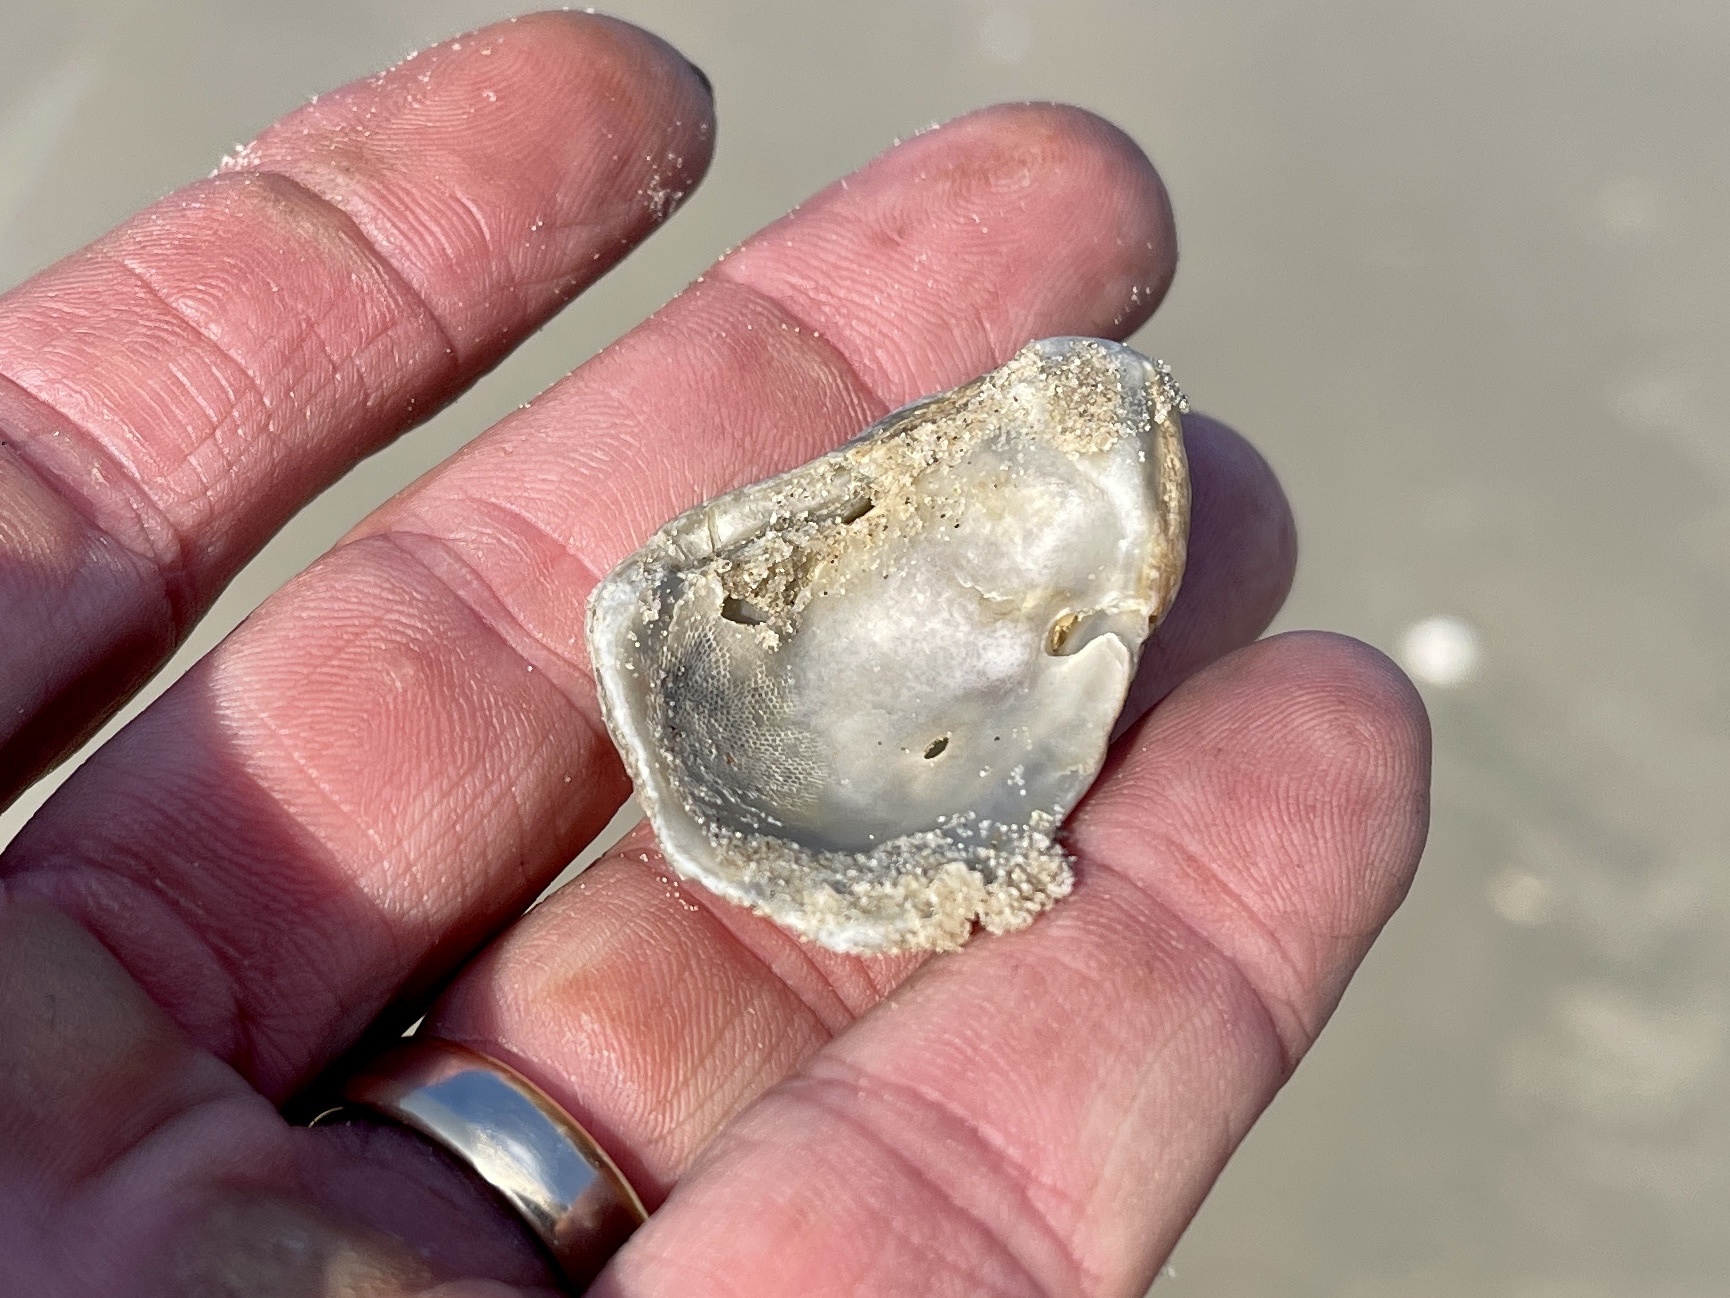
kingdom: Animalia
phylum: Mollusca
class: Bivalvia
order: Ostreida
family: Ostreidae
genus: Crassostrea
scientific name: Crassostrea virginica
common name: American oyster
